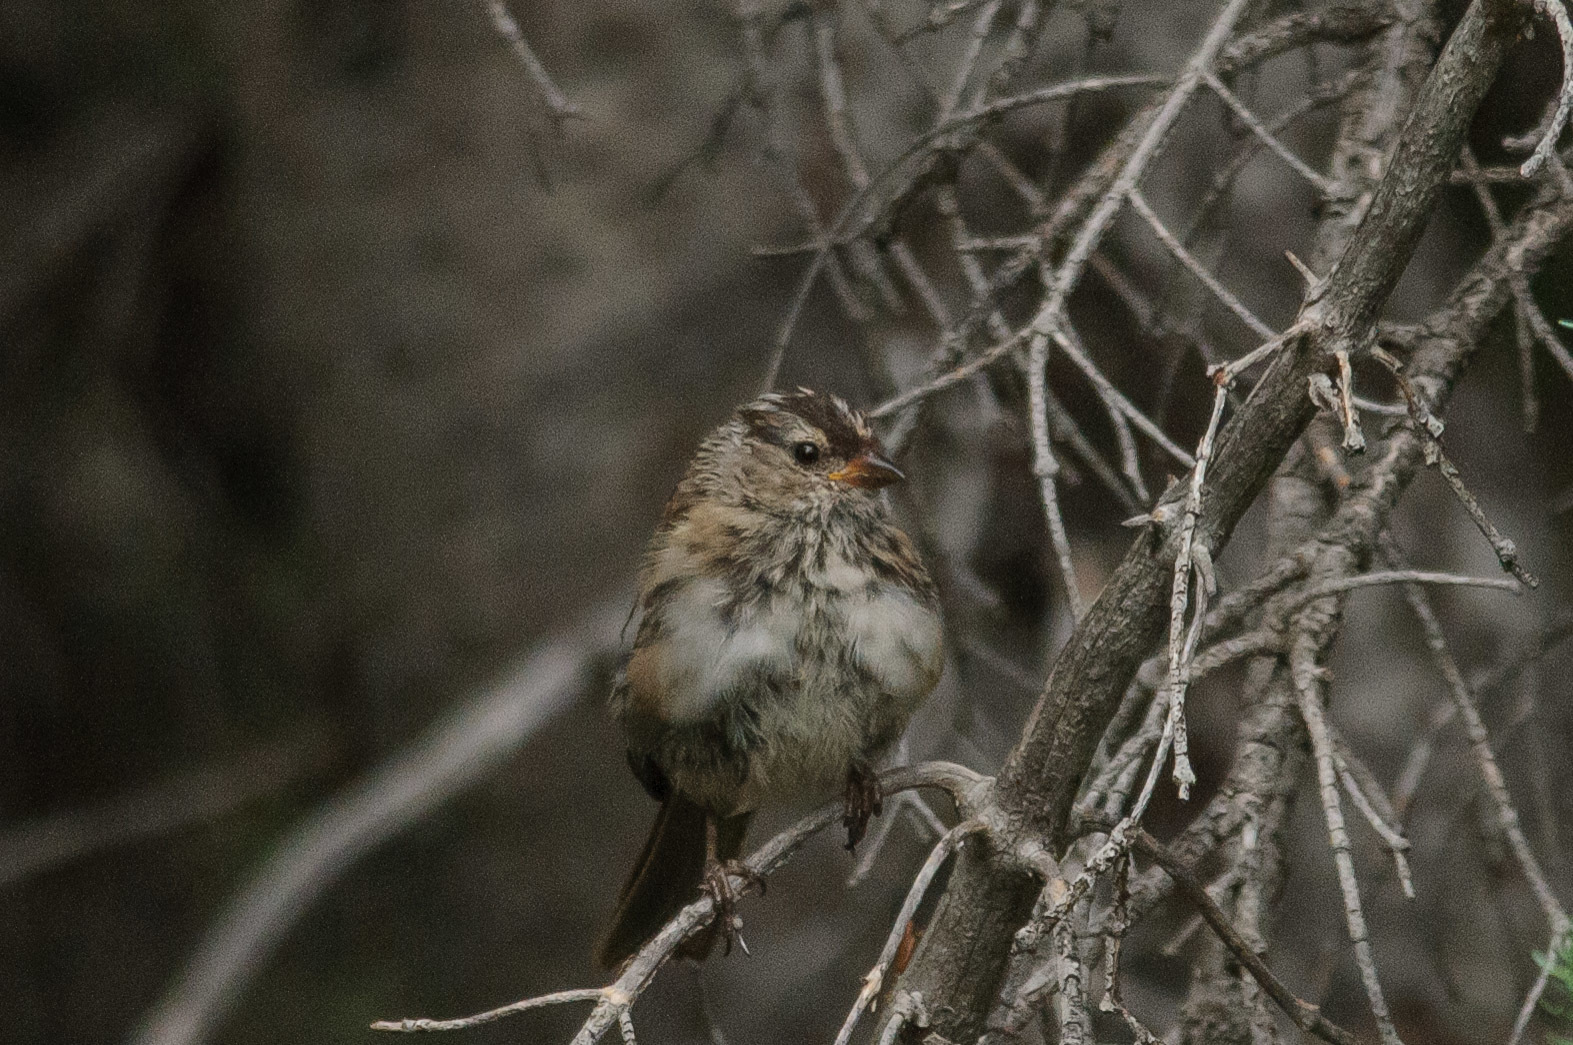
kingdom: Animalia
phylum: Chordata
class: Aves
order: Passeriformes
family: Passerellidae
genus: Zonotrichia
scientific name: Zonotrichia leucophrys
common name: White-crowned sparrow
